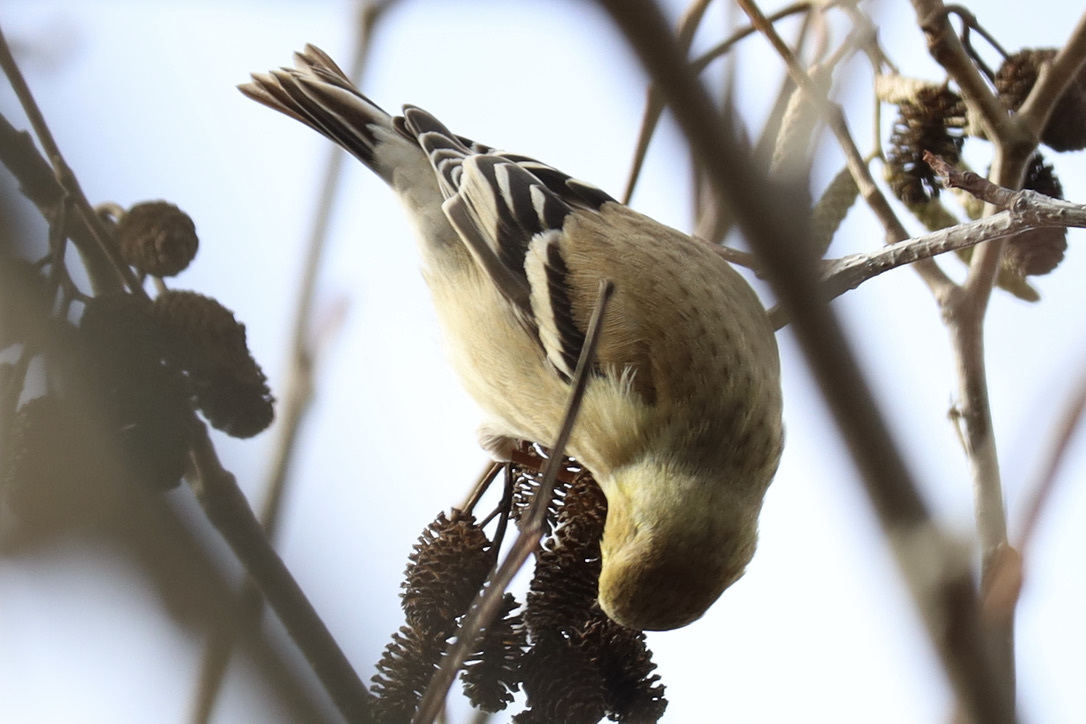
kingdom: Animalia
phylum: Chordata
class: Aves
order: Passeriformes
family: Fringillidae
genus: Spinus
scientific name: Spinus tristis
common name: American goldfinch
